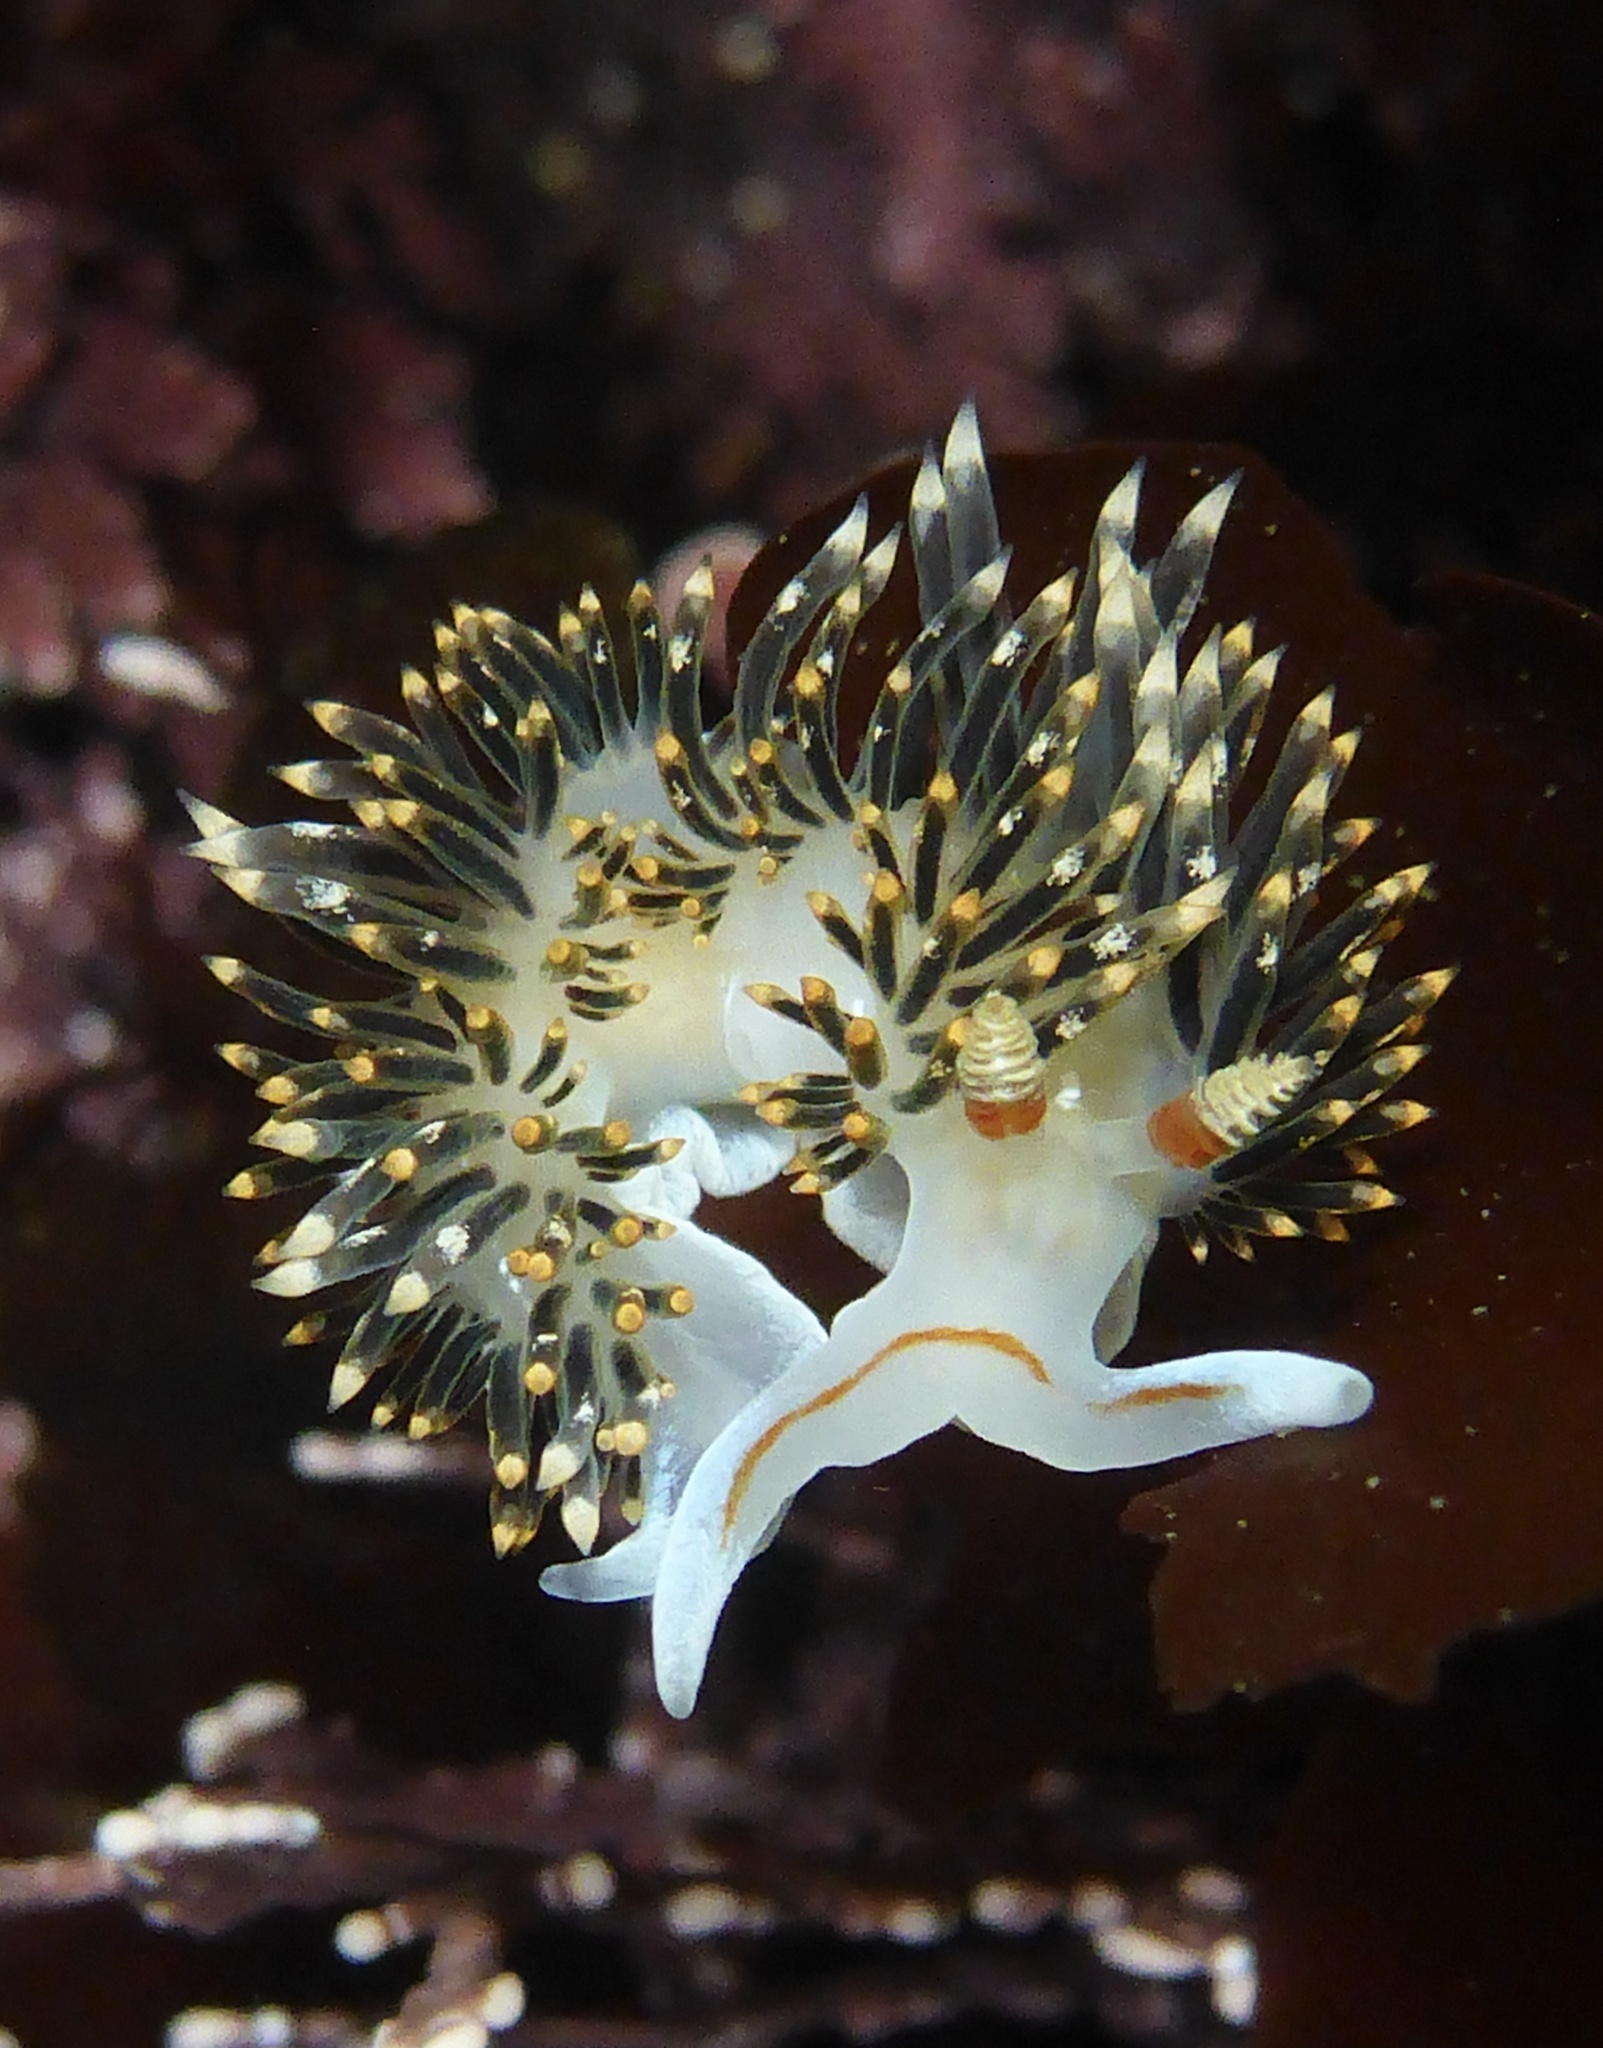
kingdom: Animalia
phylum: Mollusca
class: Gastropoda
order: Nudibranchia
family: Facelinidae
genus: Phidiana
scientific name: Phidiana hiltoni
